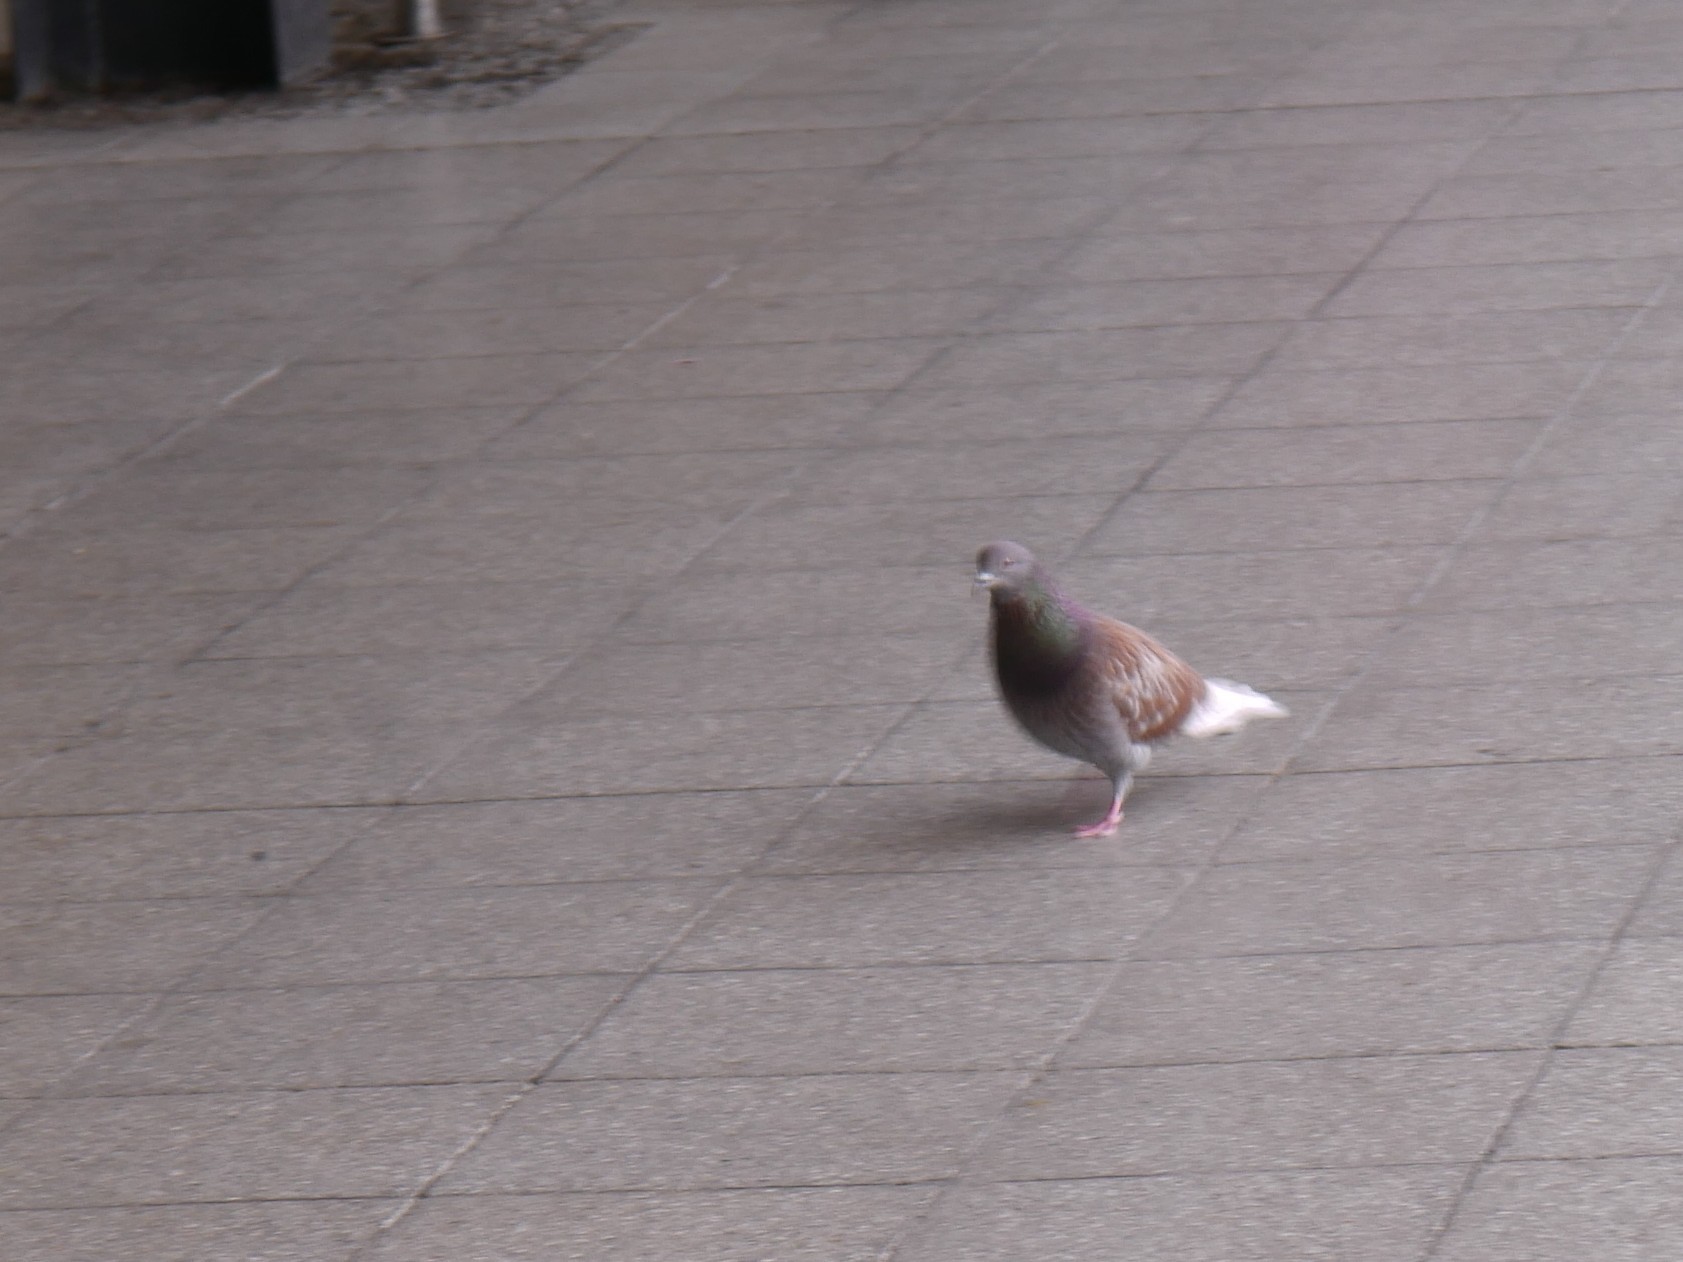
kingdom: Animalia
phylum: Chordata
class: Aves
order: Columbiformes
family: Columbidae
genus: Columba
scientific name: Columba livia
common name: Rock pigeon
